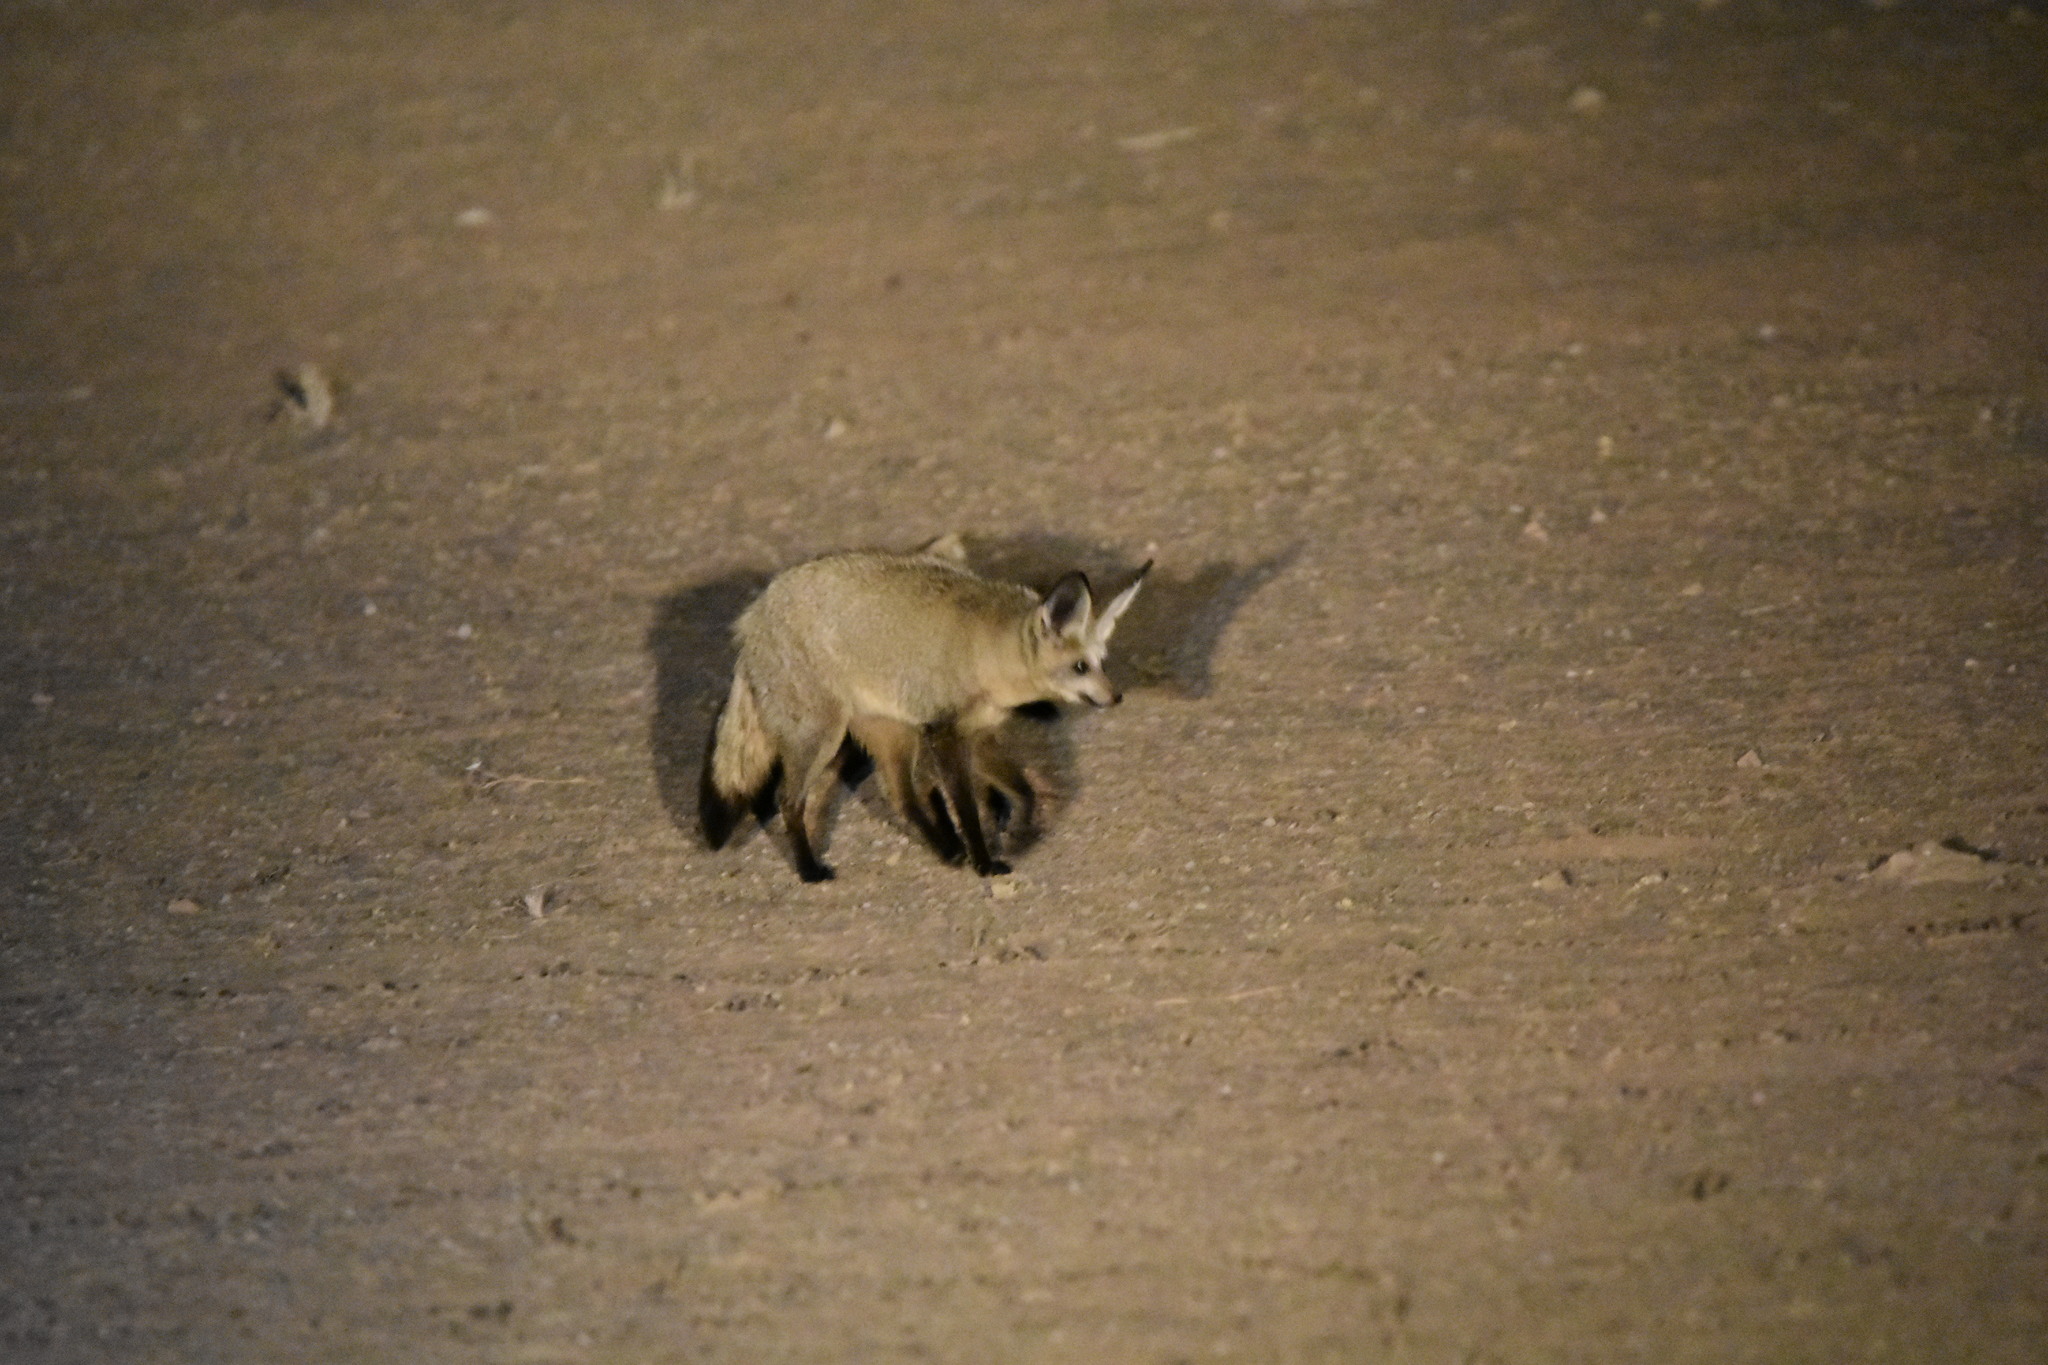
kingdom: Animalia
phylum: Chordata
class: Mammalia
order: Carnivora
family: Canidae
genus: Otocyon
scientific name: Otocyon megalotis
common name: Bat-eared fox
